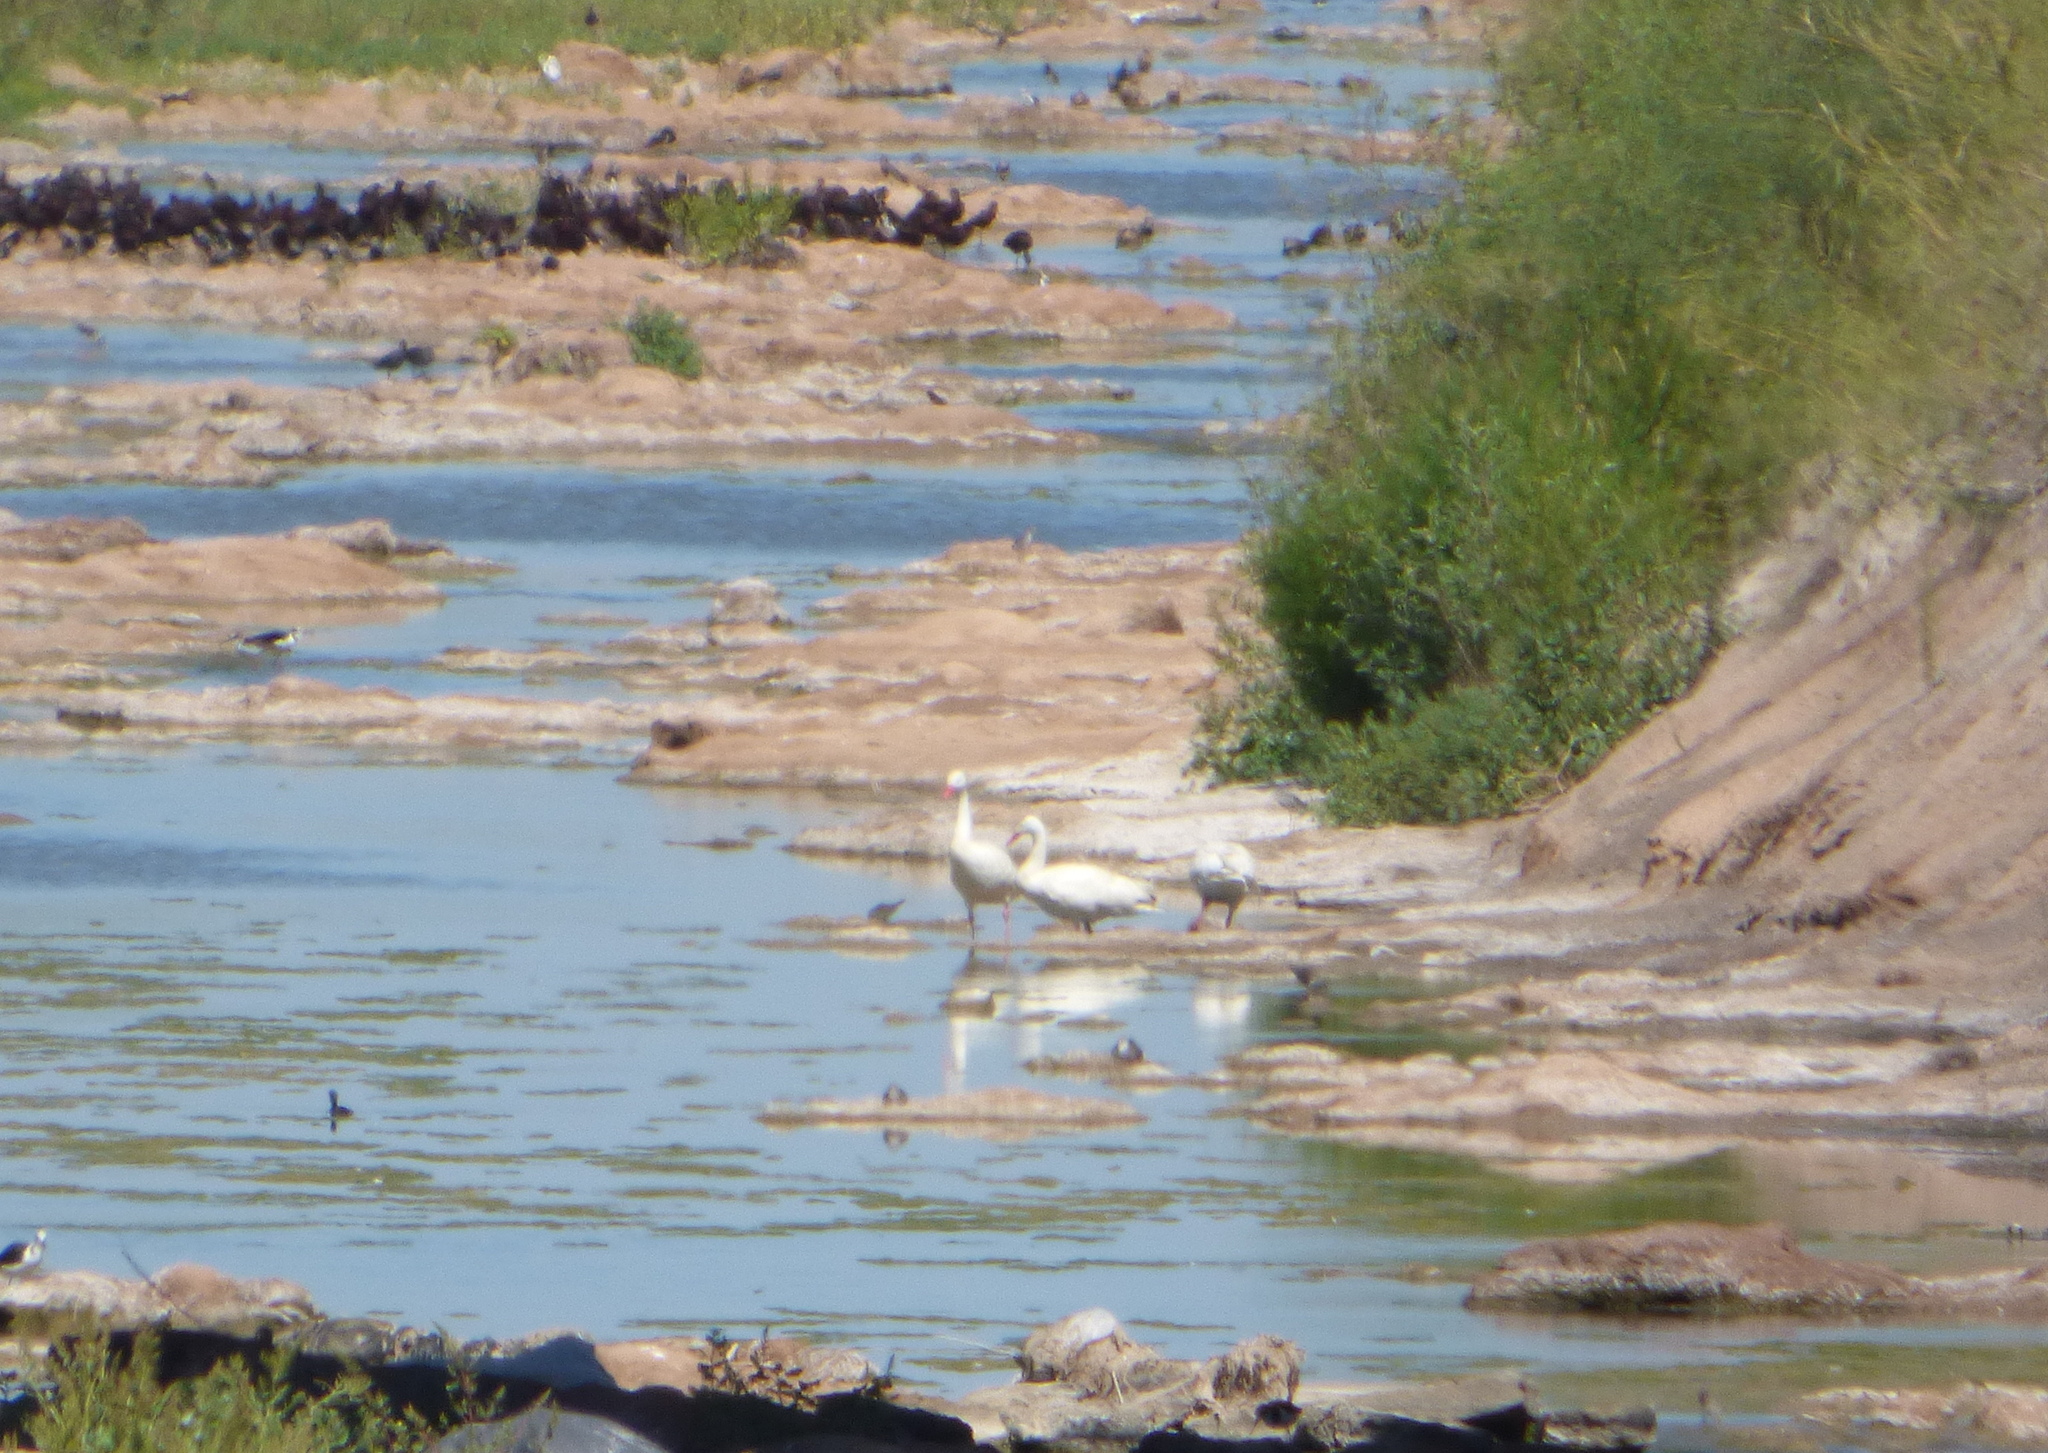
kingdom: Animalia
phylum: Chordata
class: Aves
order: Anseriformes
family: Anatidae
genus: Coscoroba
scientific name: Coscoroba coscoroba
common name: Coscoroba swan
